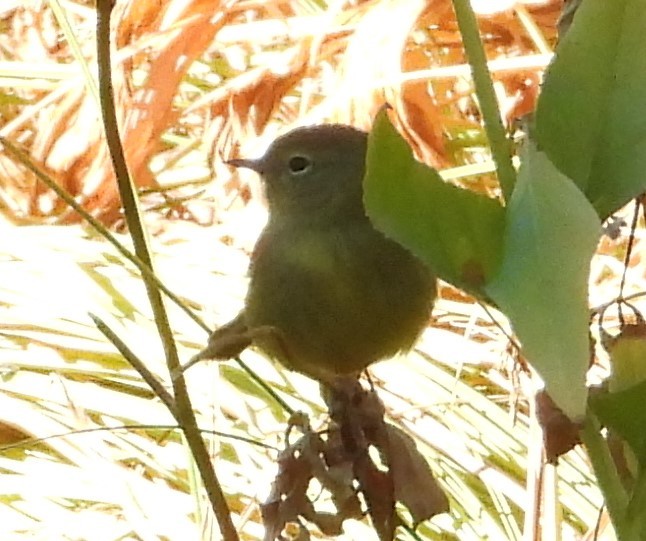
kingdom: Animalia
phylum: Chordata
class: Aves
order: Passeriformes
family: Parulidae
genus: Leiothlypis
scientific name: Leiothlypis celata
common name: Orange-crowned warbler
